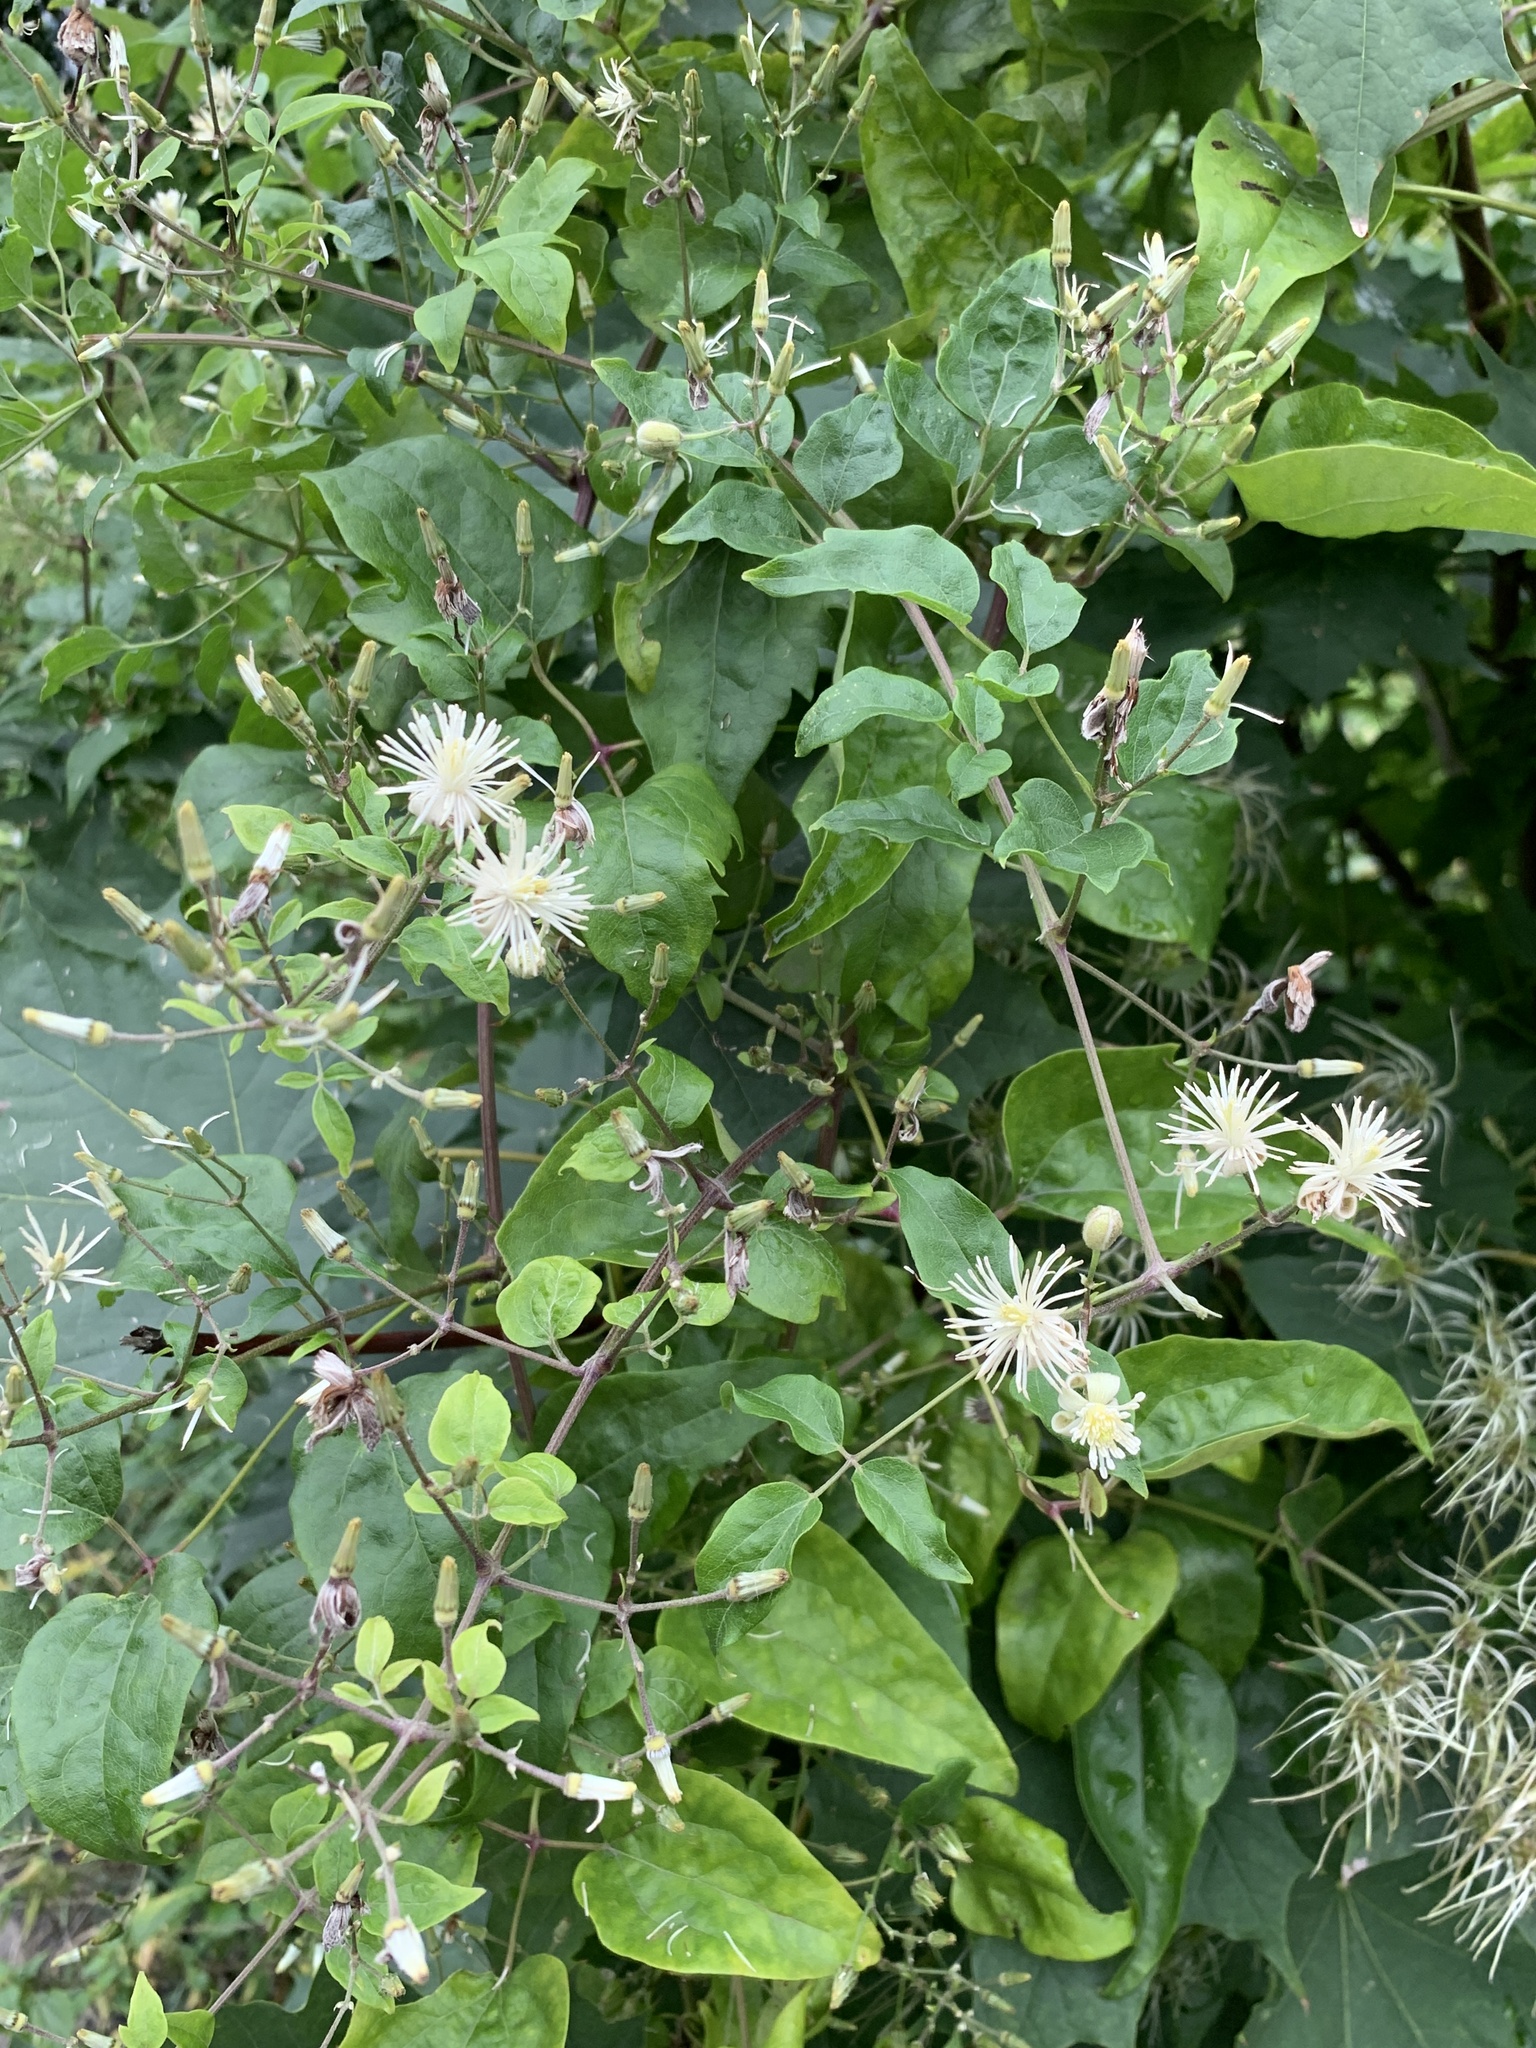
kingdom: Plantae
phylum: Tracheophyta
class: Magnoliopsida
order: Ranunculales
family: Ranunculaceae
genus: Clematis
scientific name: Clematis vitalba
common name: Evergreen clematis
